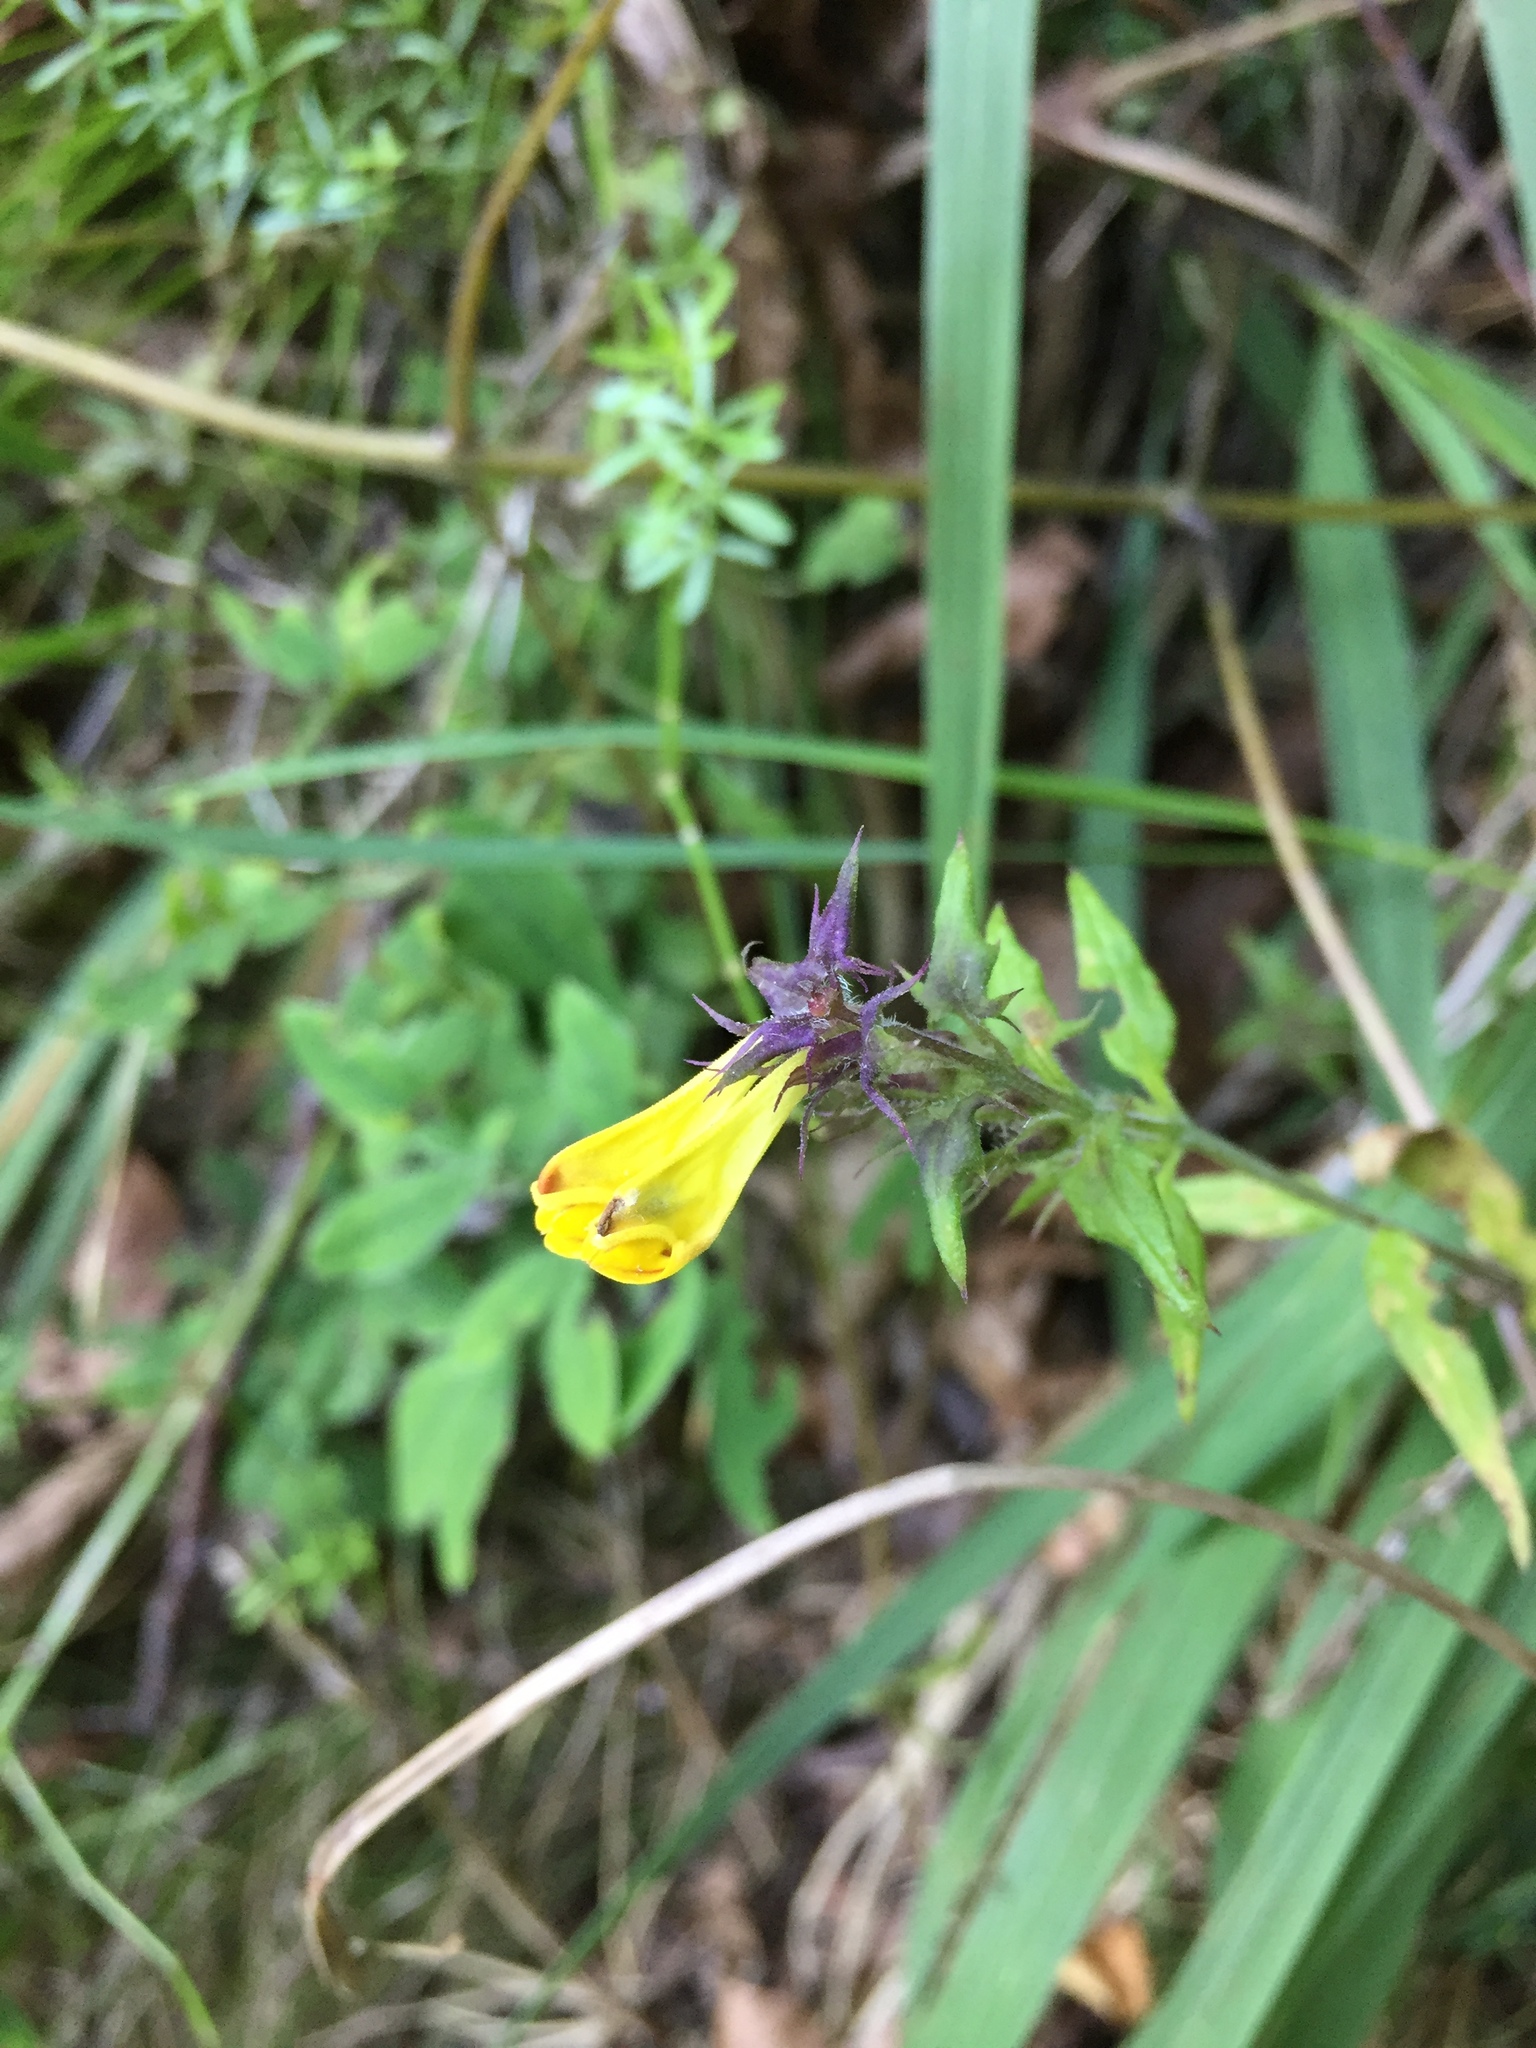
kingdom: Plantae
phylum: Tracheophyta
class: Magnoliopsida
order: Lamiales
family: Orobanchaceae
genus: Melampyrum
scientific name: Melampyrum nemorosum
